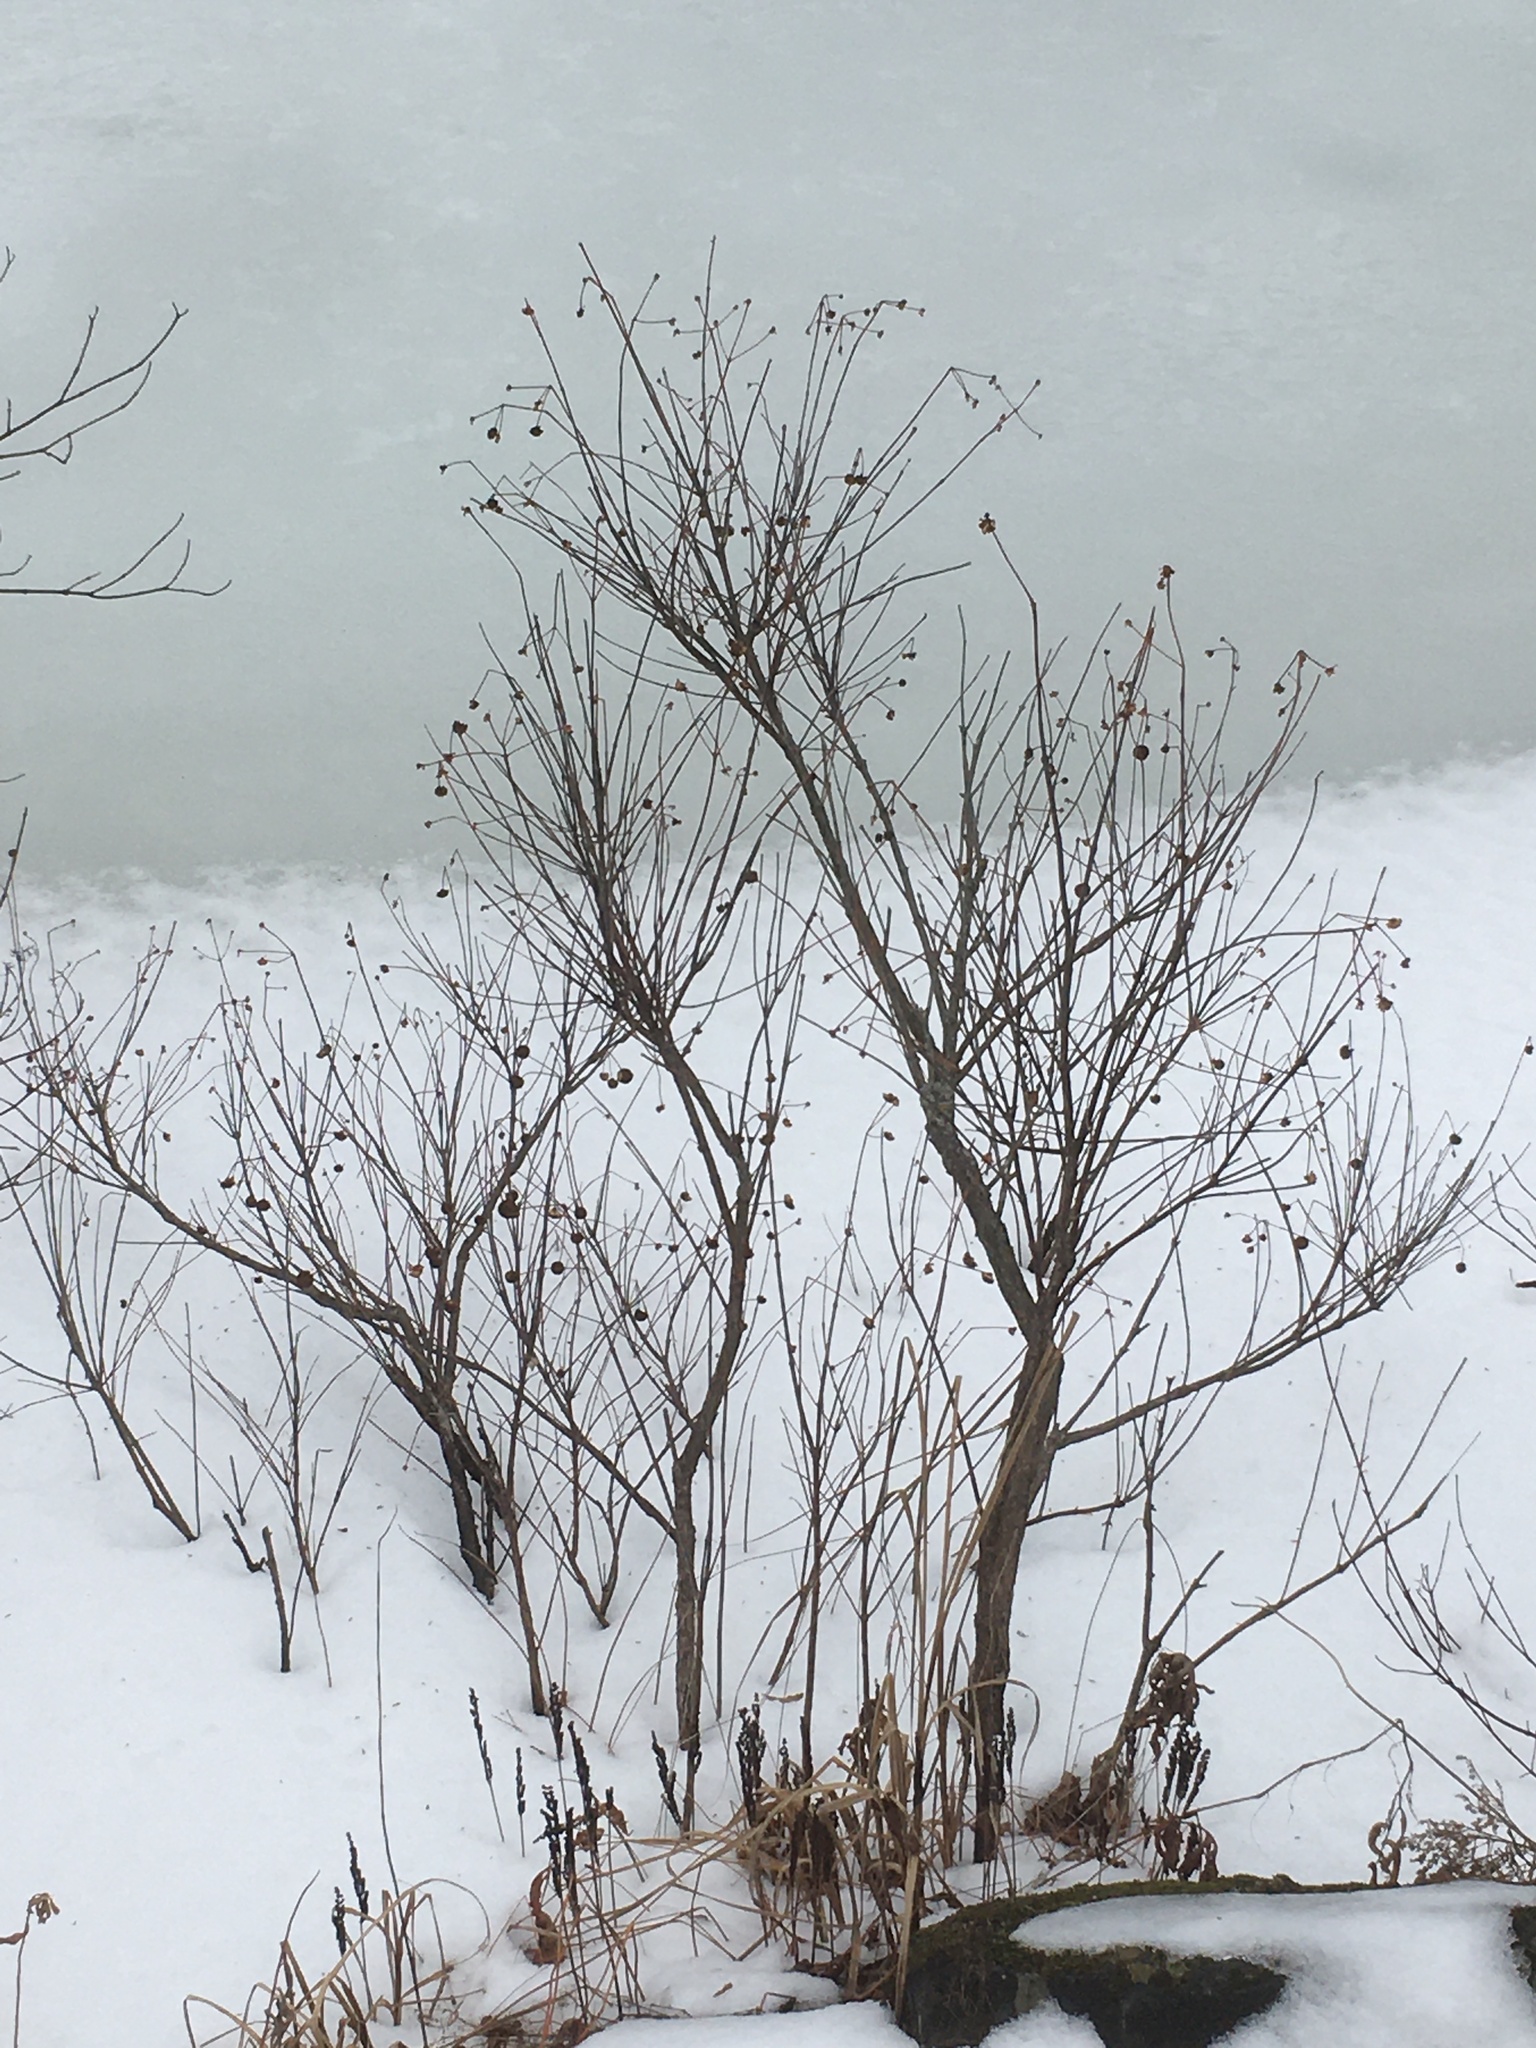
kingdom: Plantae
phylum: Tracheophyta
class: Magnoliopsida
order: Gentianales
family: Rubiaceae
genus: Cephalanthus
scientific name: Cephalanthus occidentalis
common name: Button-willow
